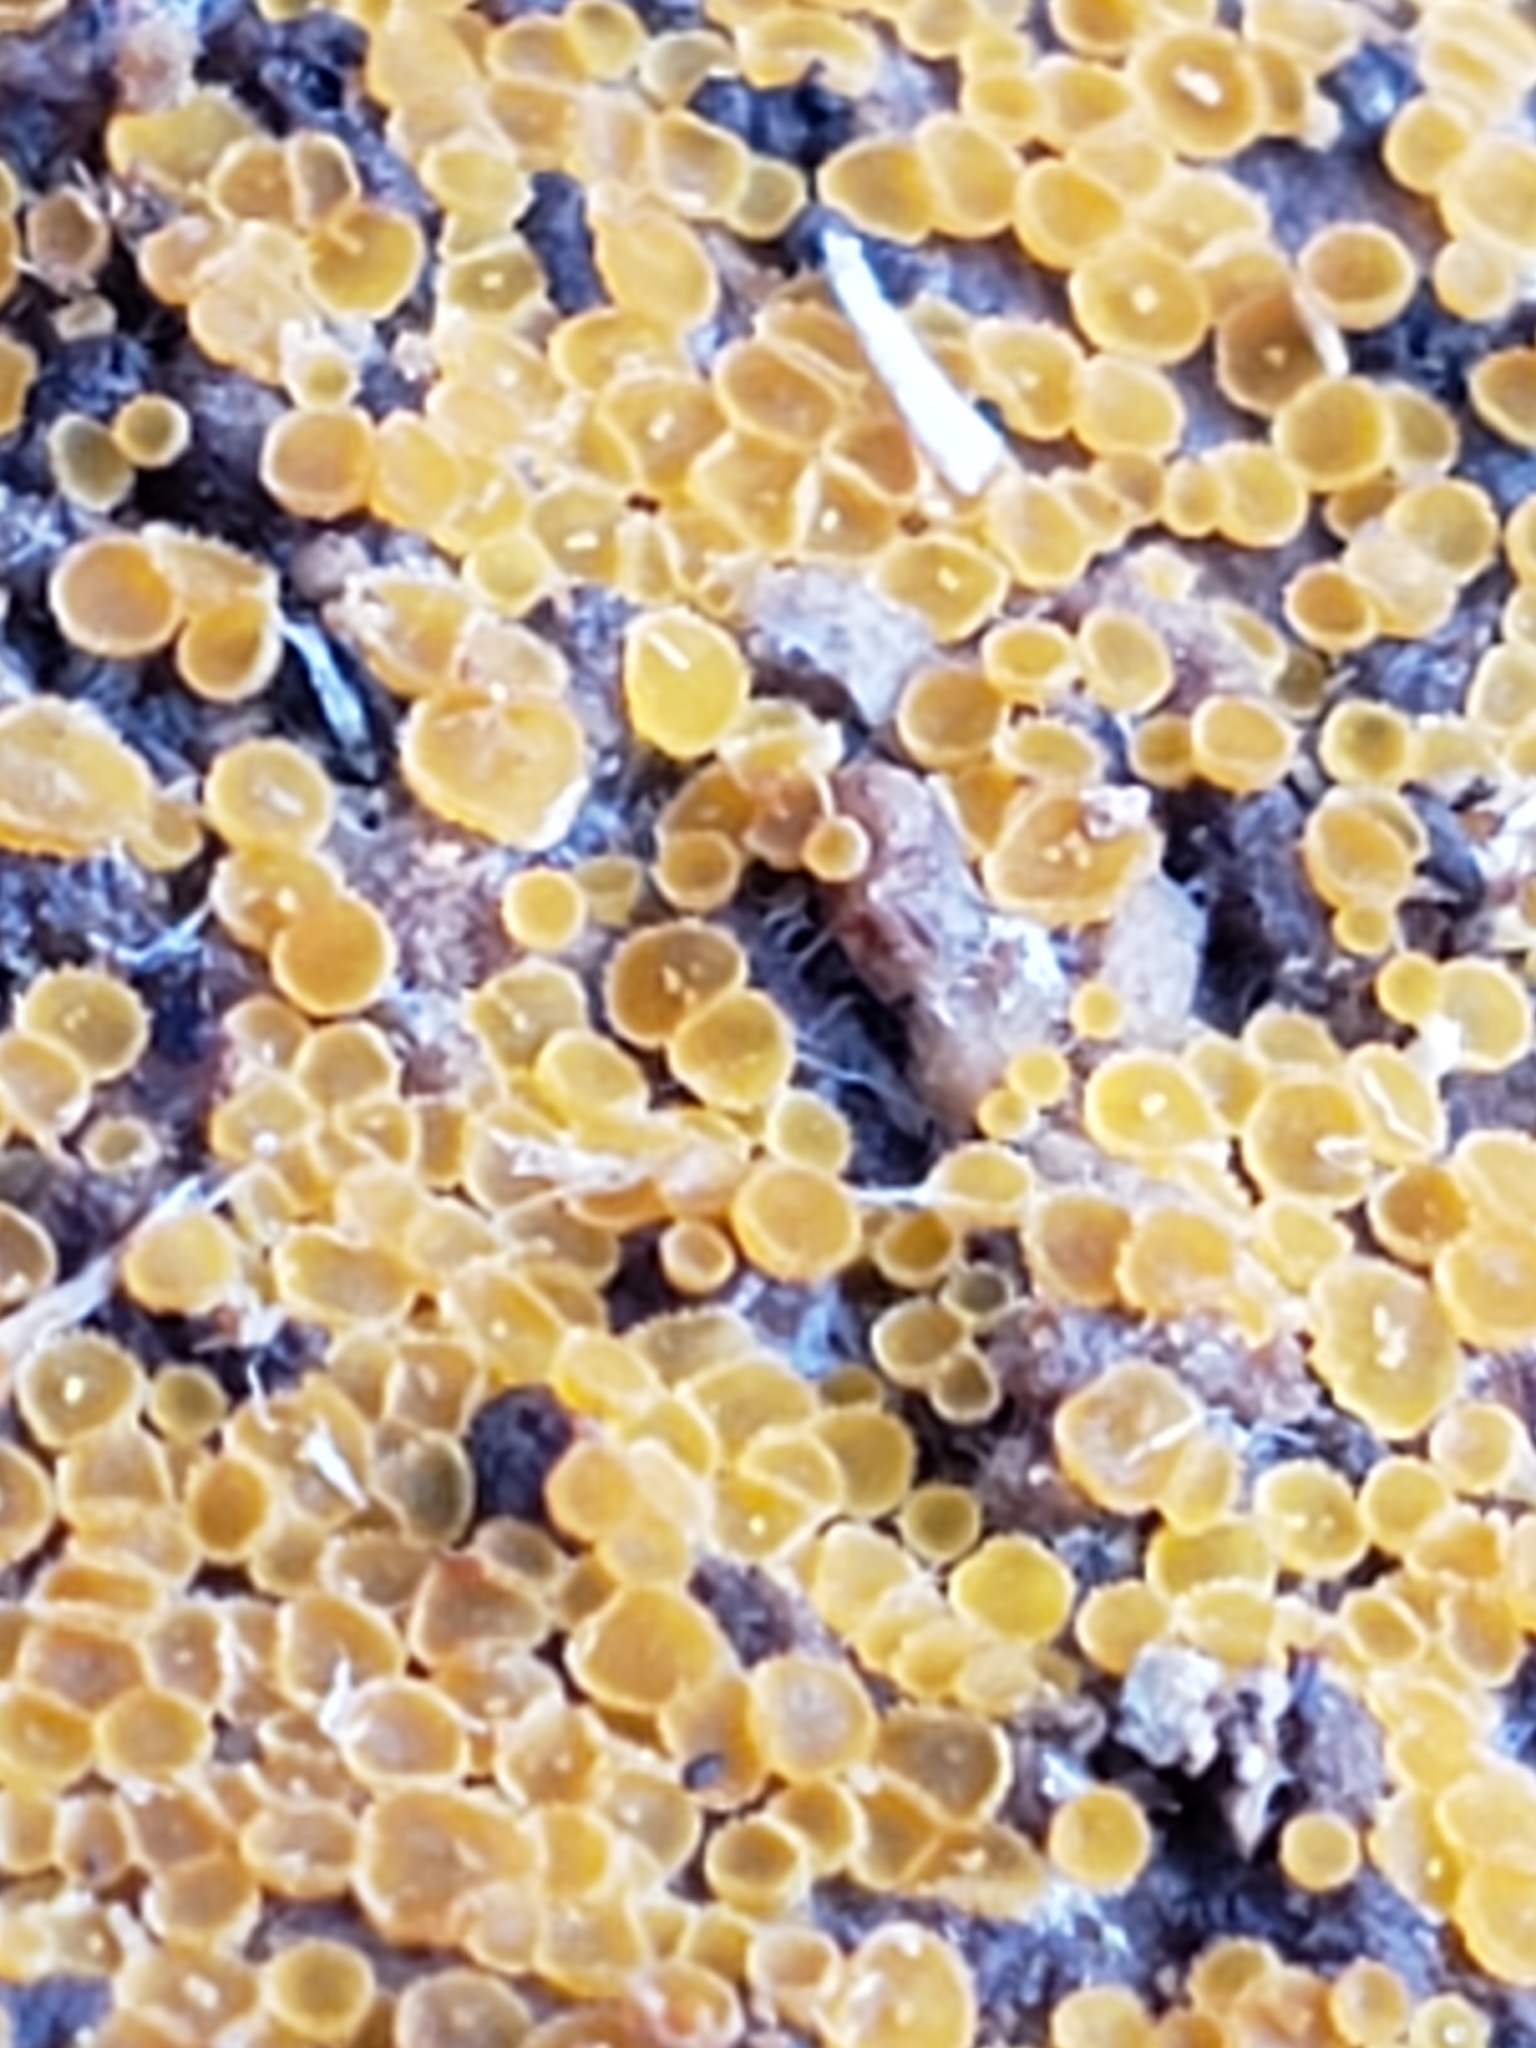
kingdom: Fungi
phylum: Ascomycota
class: Leotiomycetes
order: Helotiales
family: Arachnopezizaceae
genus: Arachnopeziza
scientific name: Arachnopeziza trabinelloides
